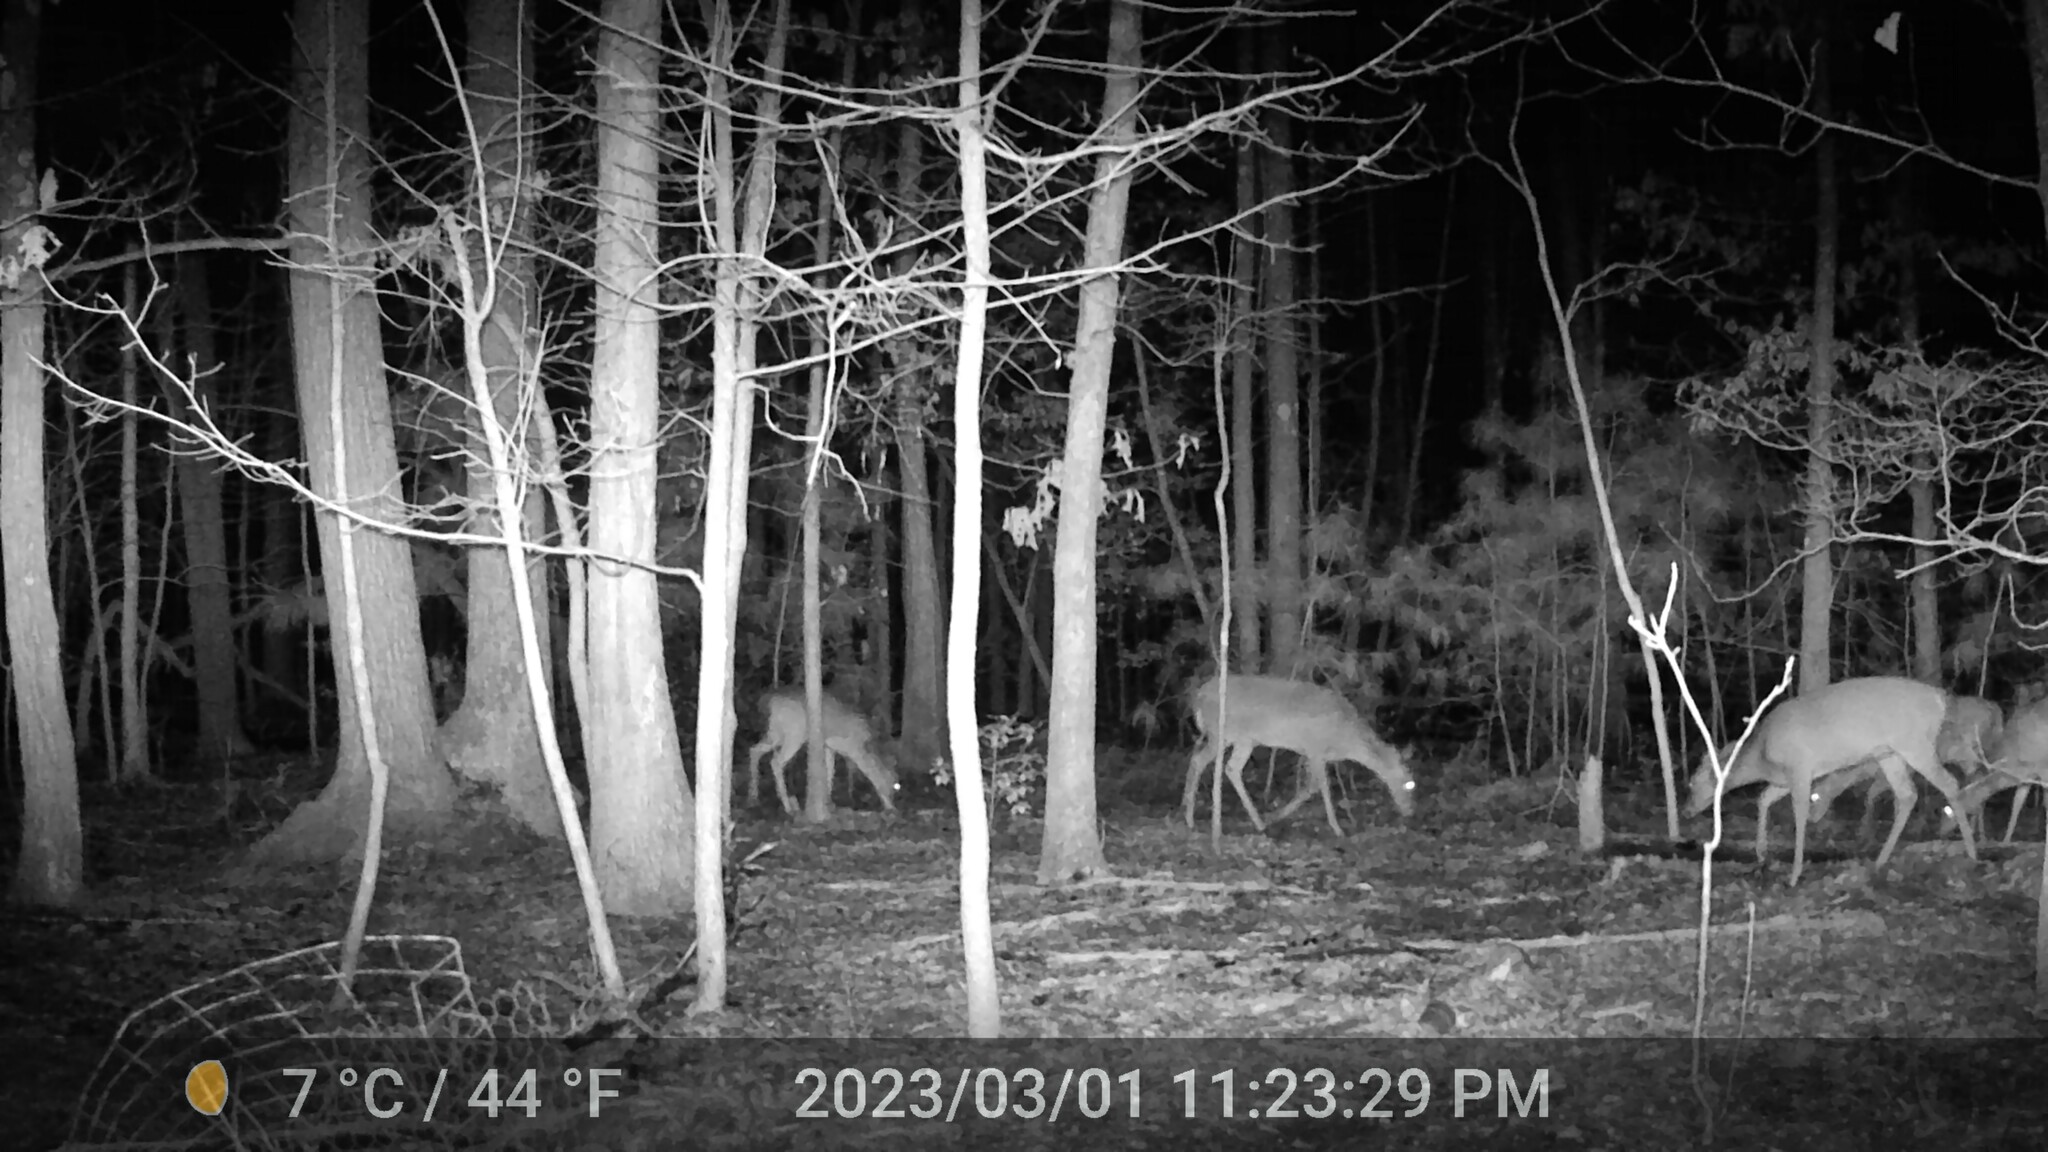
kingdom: Animalia
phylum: Chordata
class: Mammalia
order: Artiodactyla
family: Cervidae
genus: Odocoileus
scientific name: Odocoileus virginianus
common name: White-tailed deer
